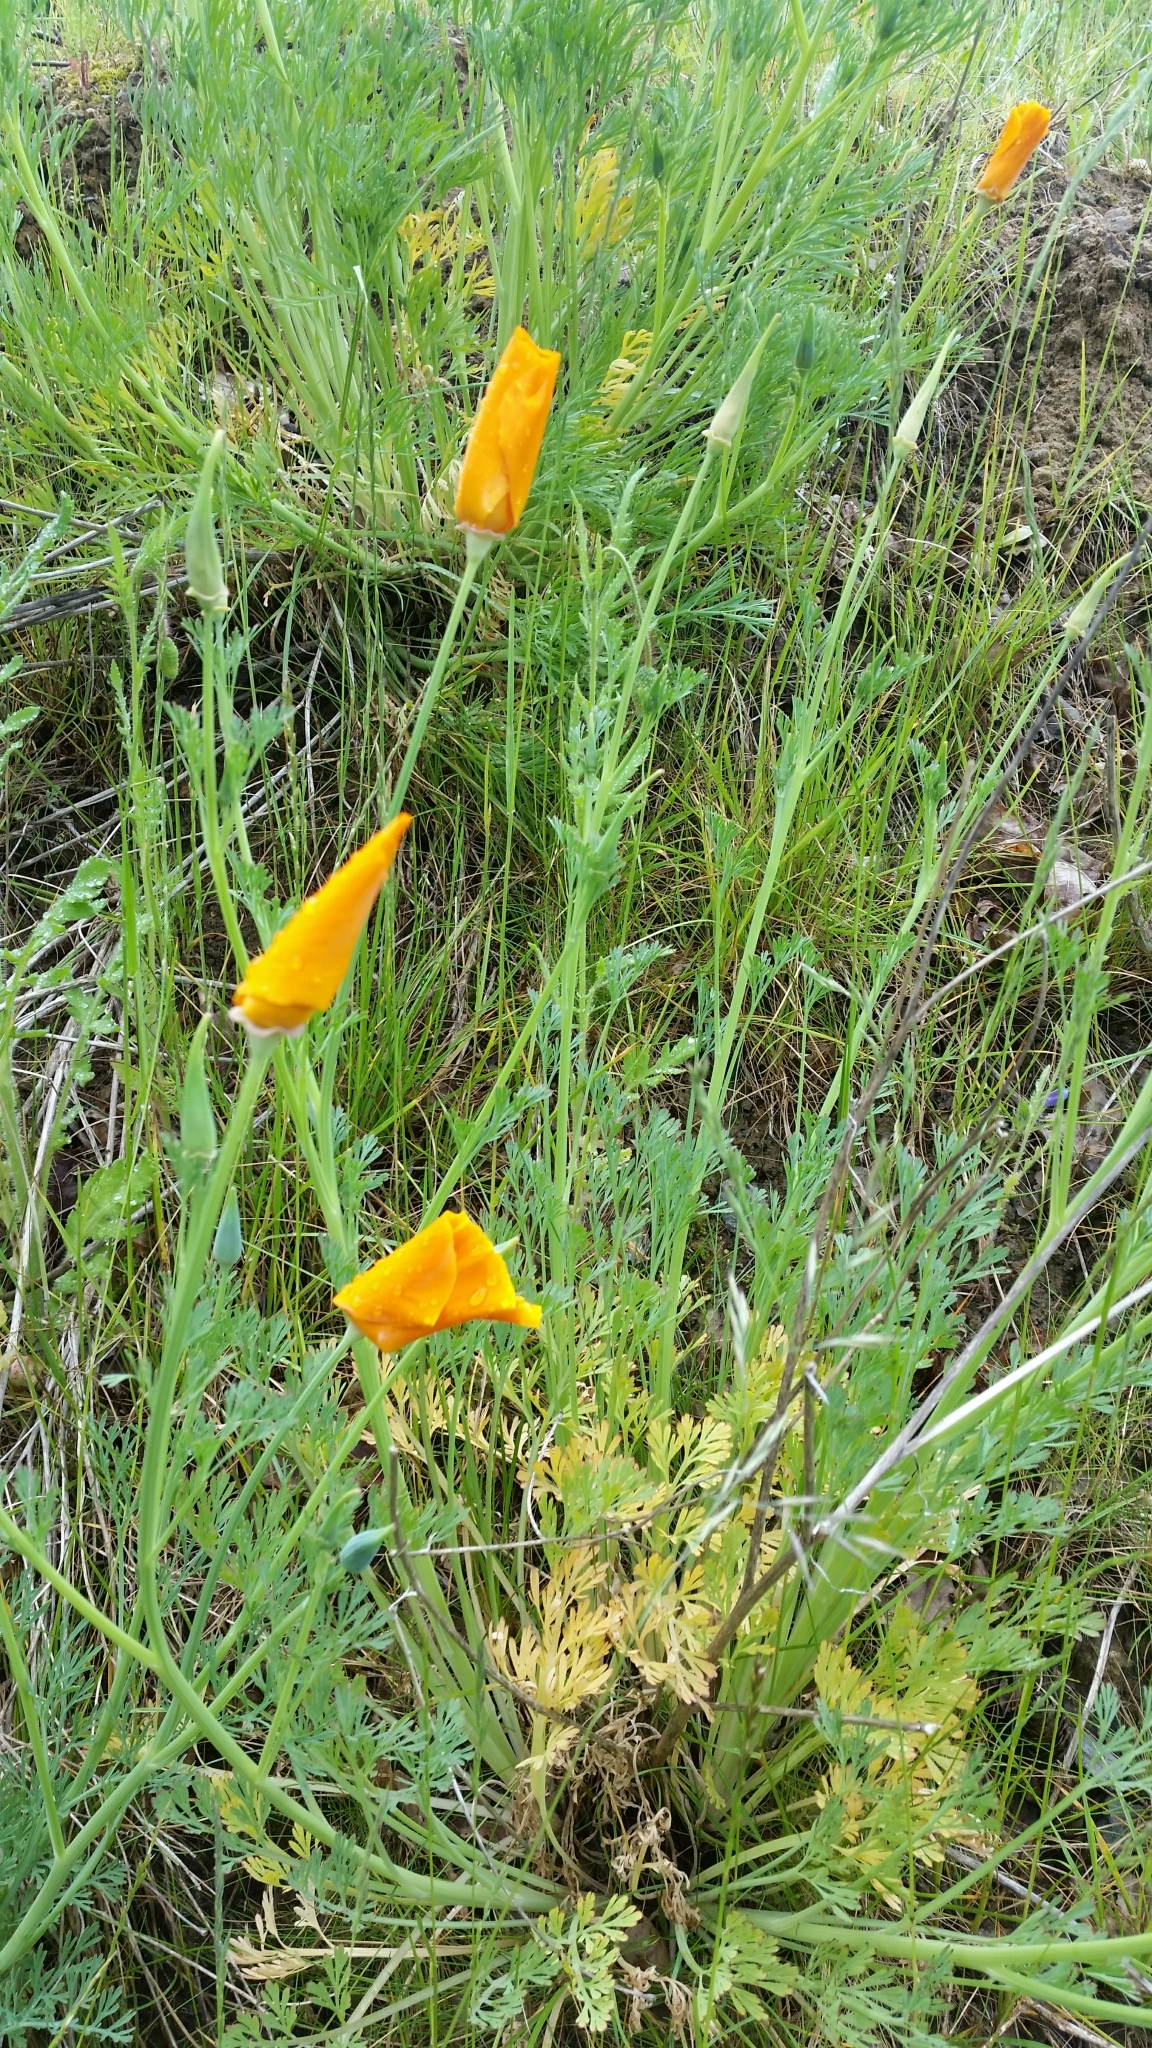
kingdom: Plantae
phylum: Tracheophyta
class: Magnoliopsida
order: Ranunculales
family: Papaveraceae
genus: Eschscholzia
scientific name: Eschscholzia californica
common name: California poppy
